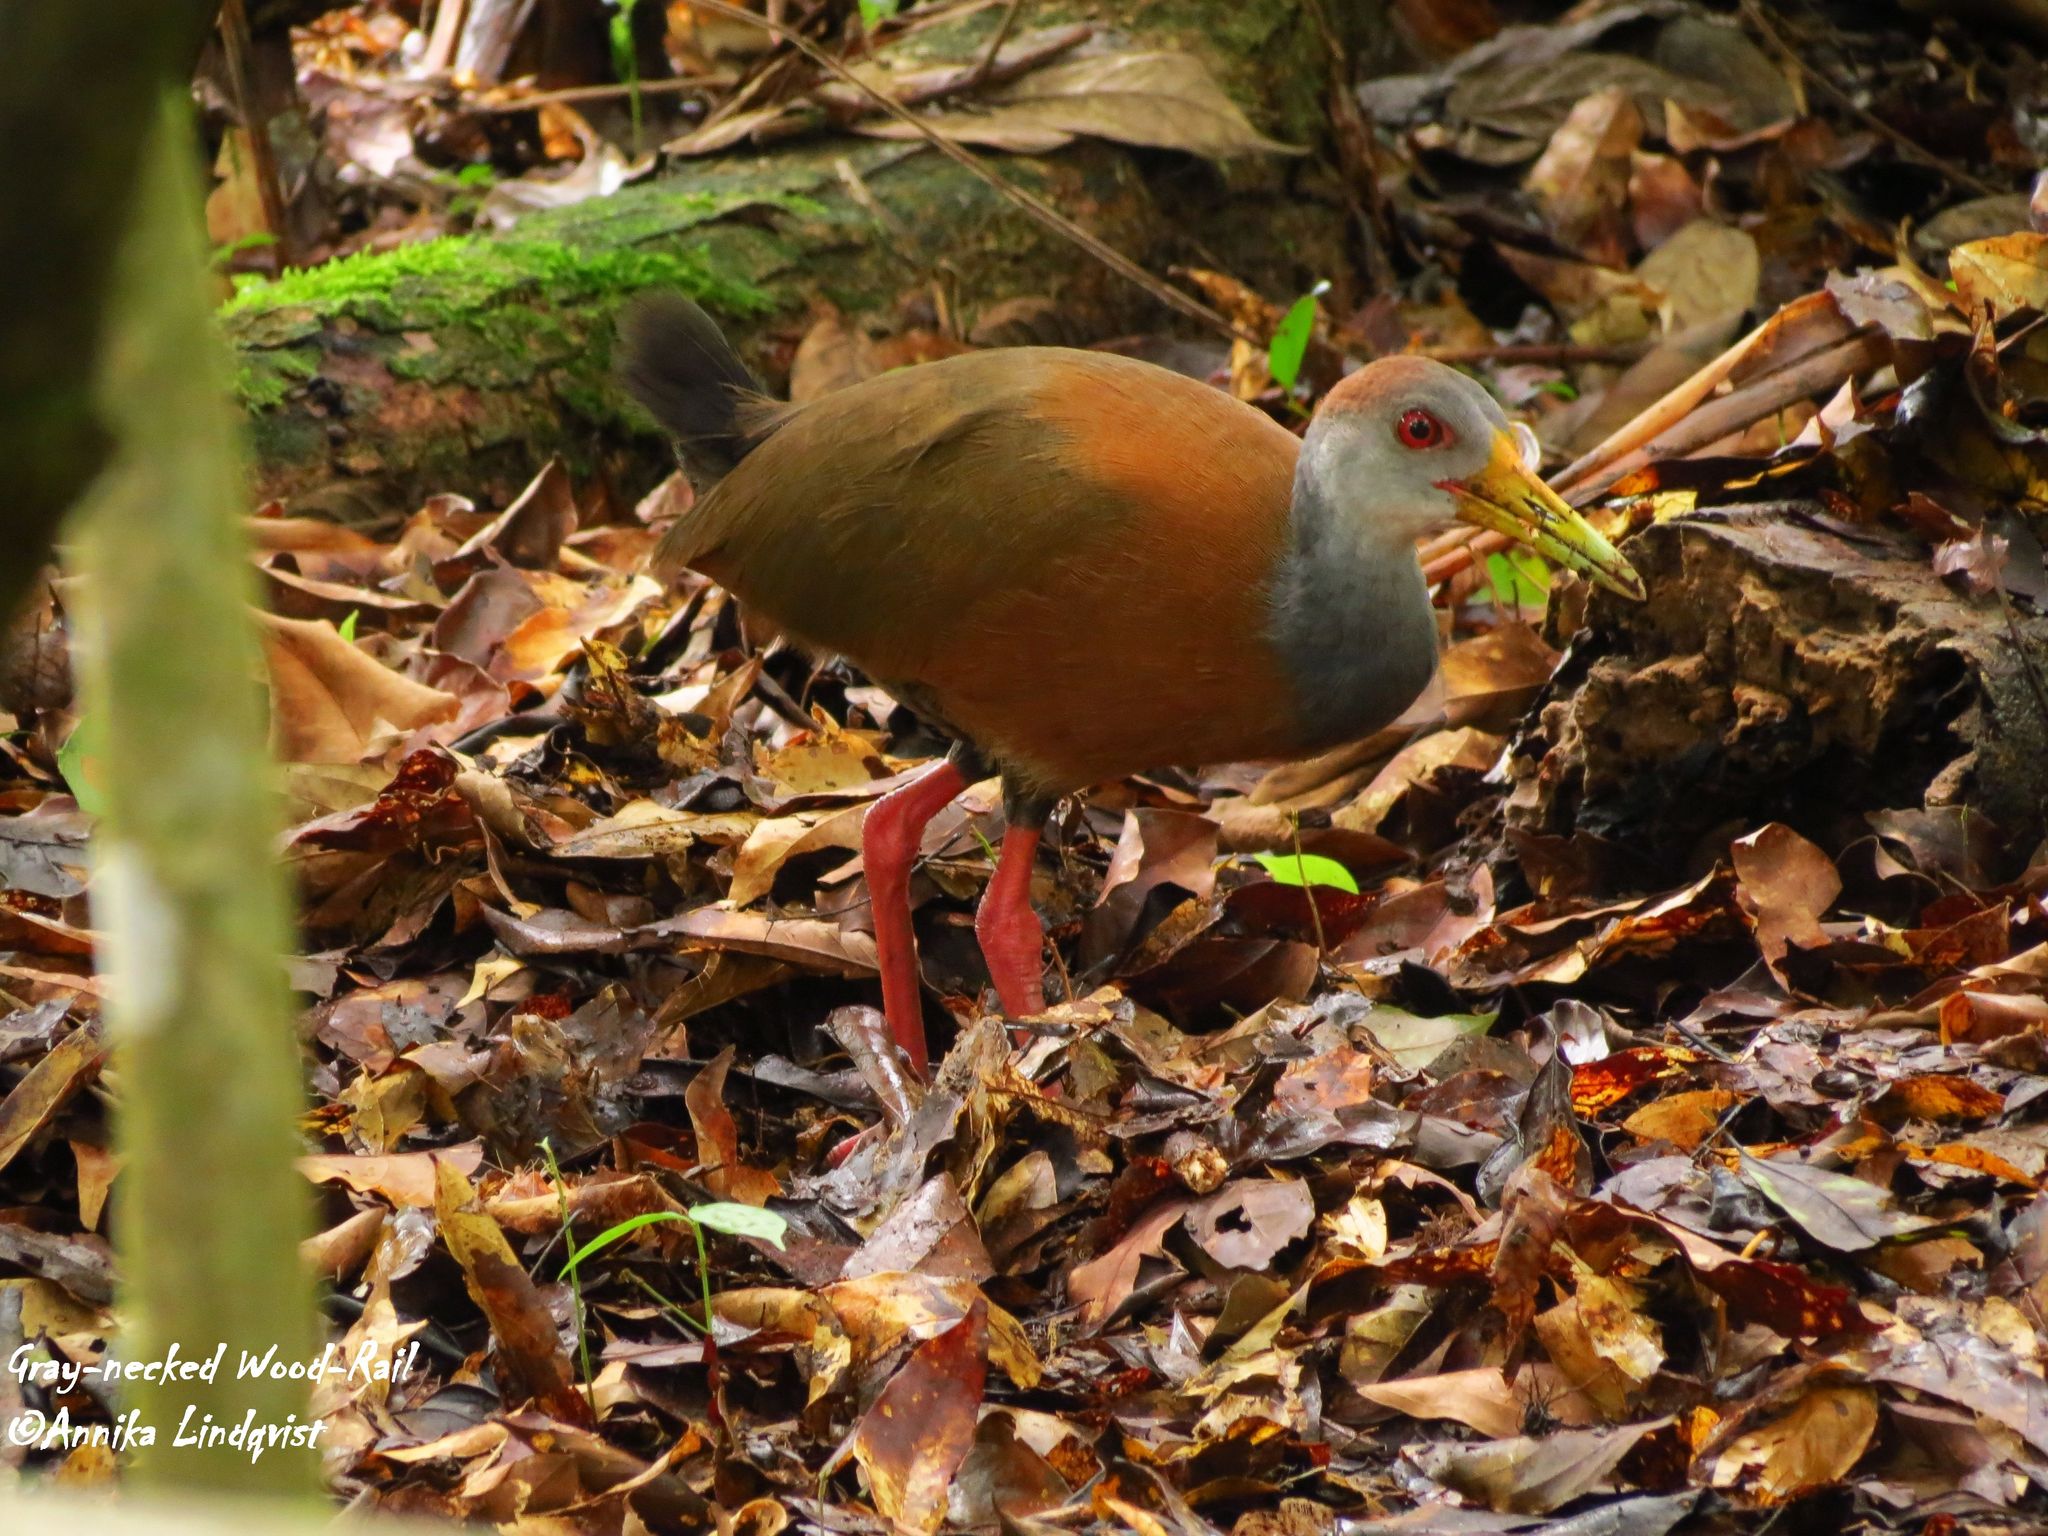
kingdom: Animalia
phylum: Chordata
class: Aves
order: Gruiformes
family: Rallidae
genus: Aramides
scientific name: Aramides albiventris
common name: Russet-naped wood-rail
